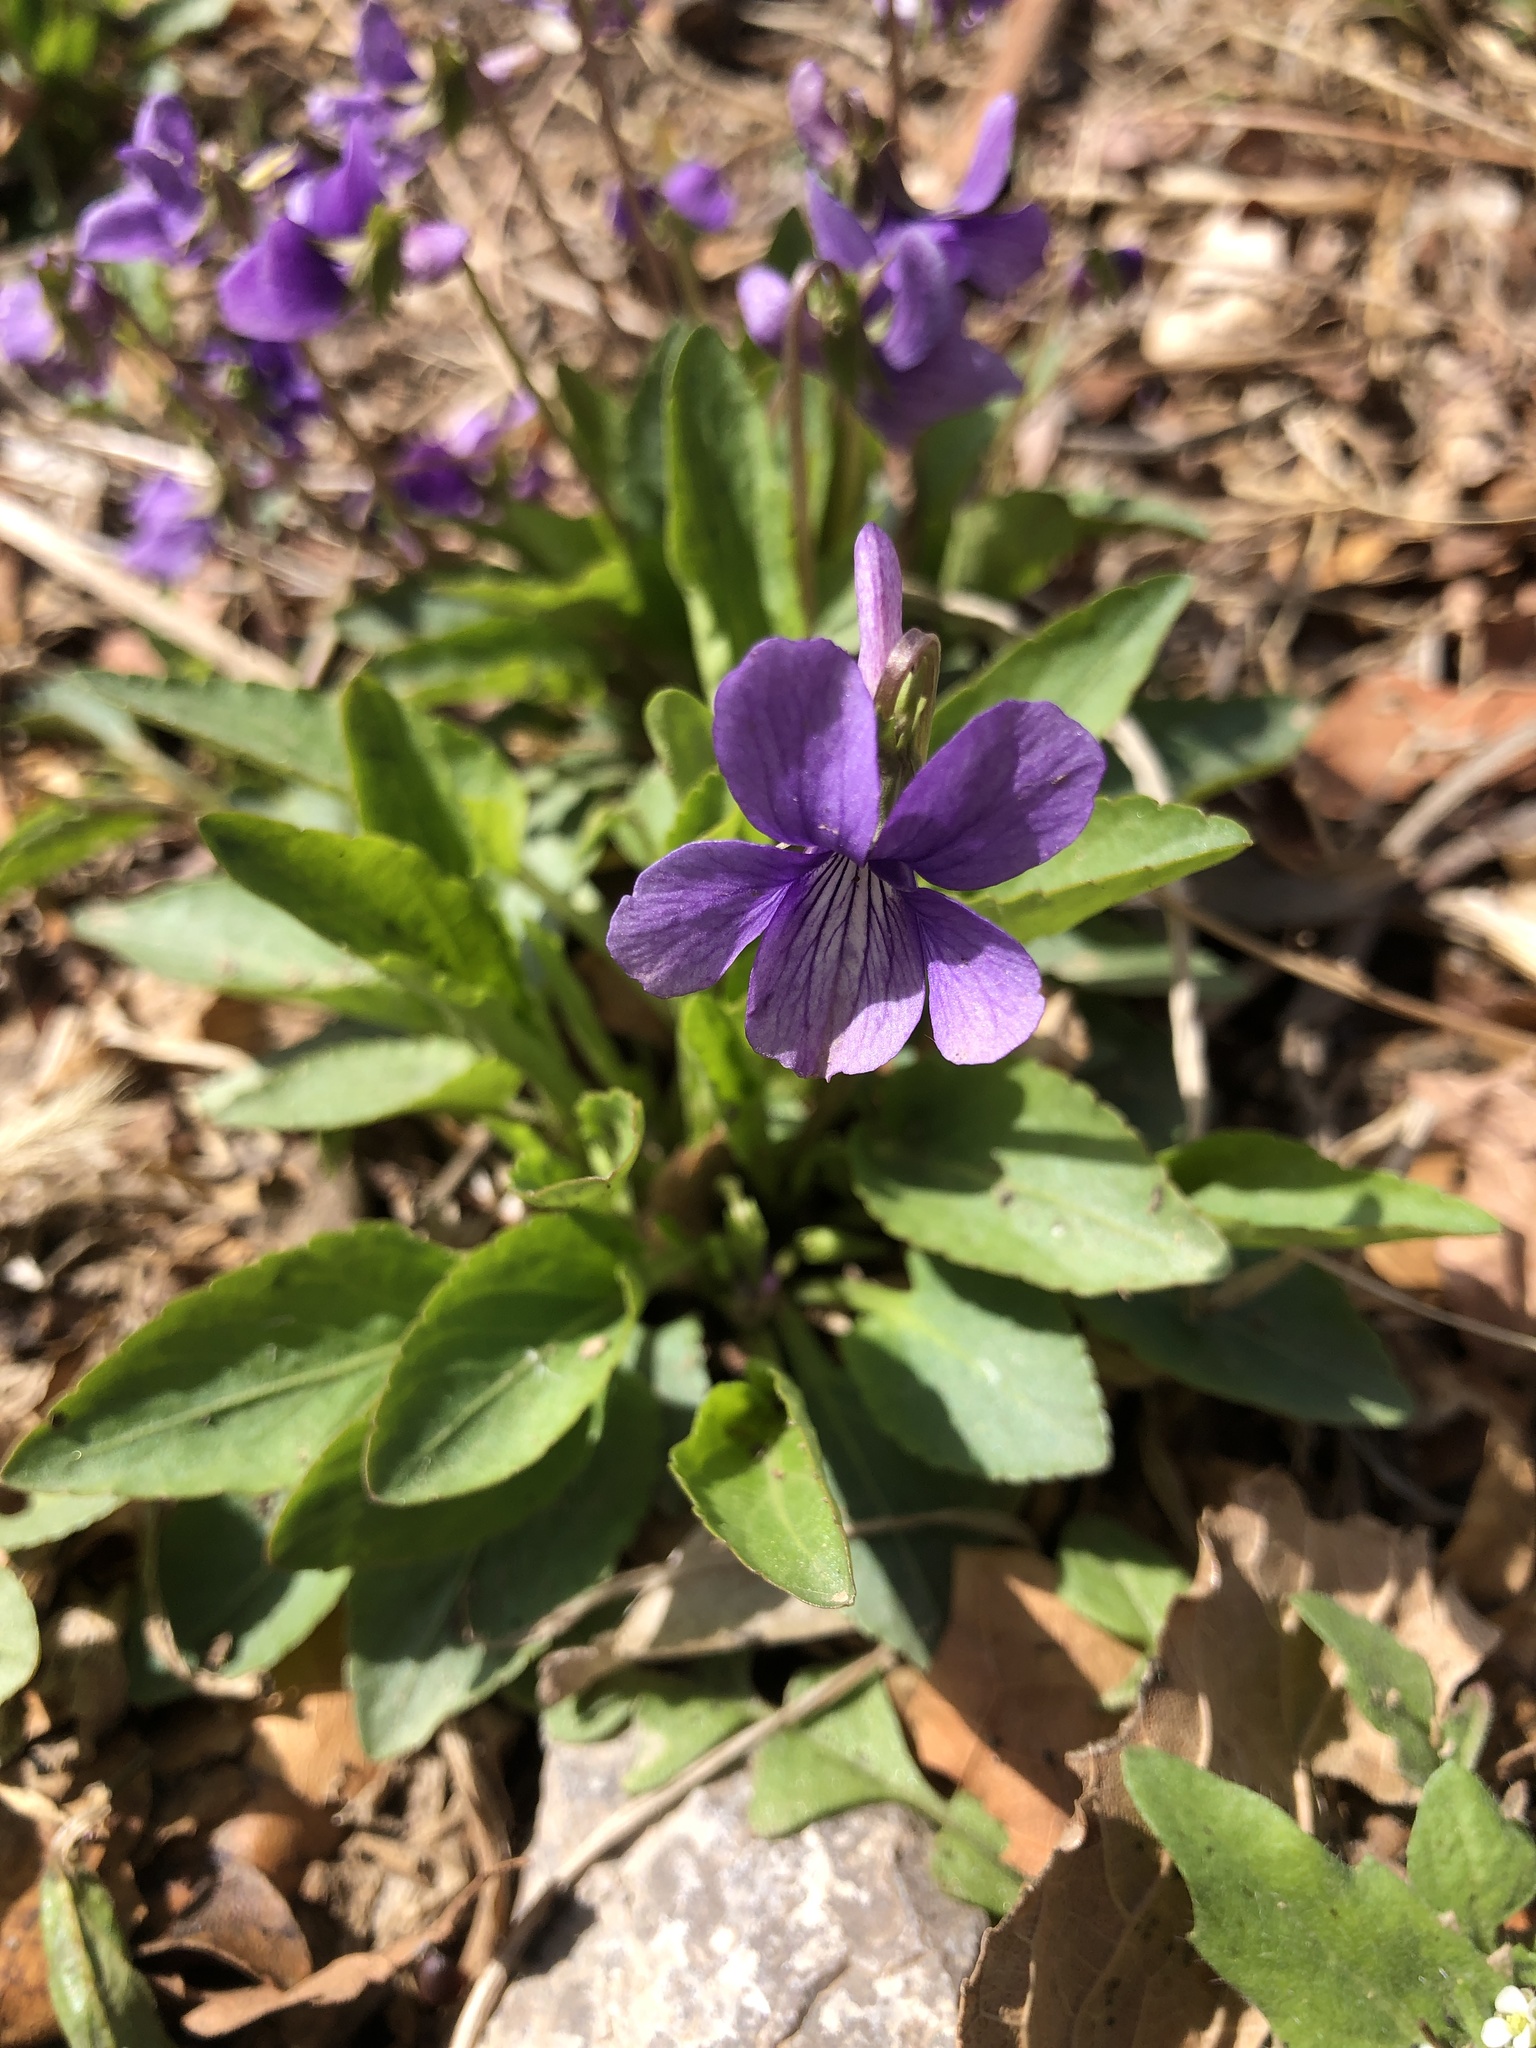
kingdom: Plantae
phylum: Tracheophyta
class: Magnoliopsida
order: Malpighiales
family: Violaceae
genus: Viola
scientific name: Viola prionantha
